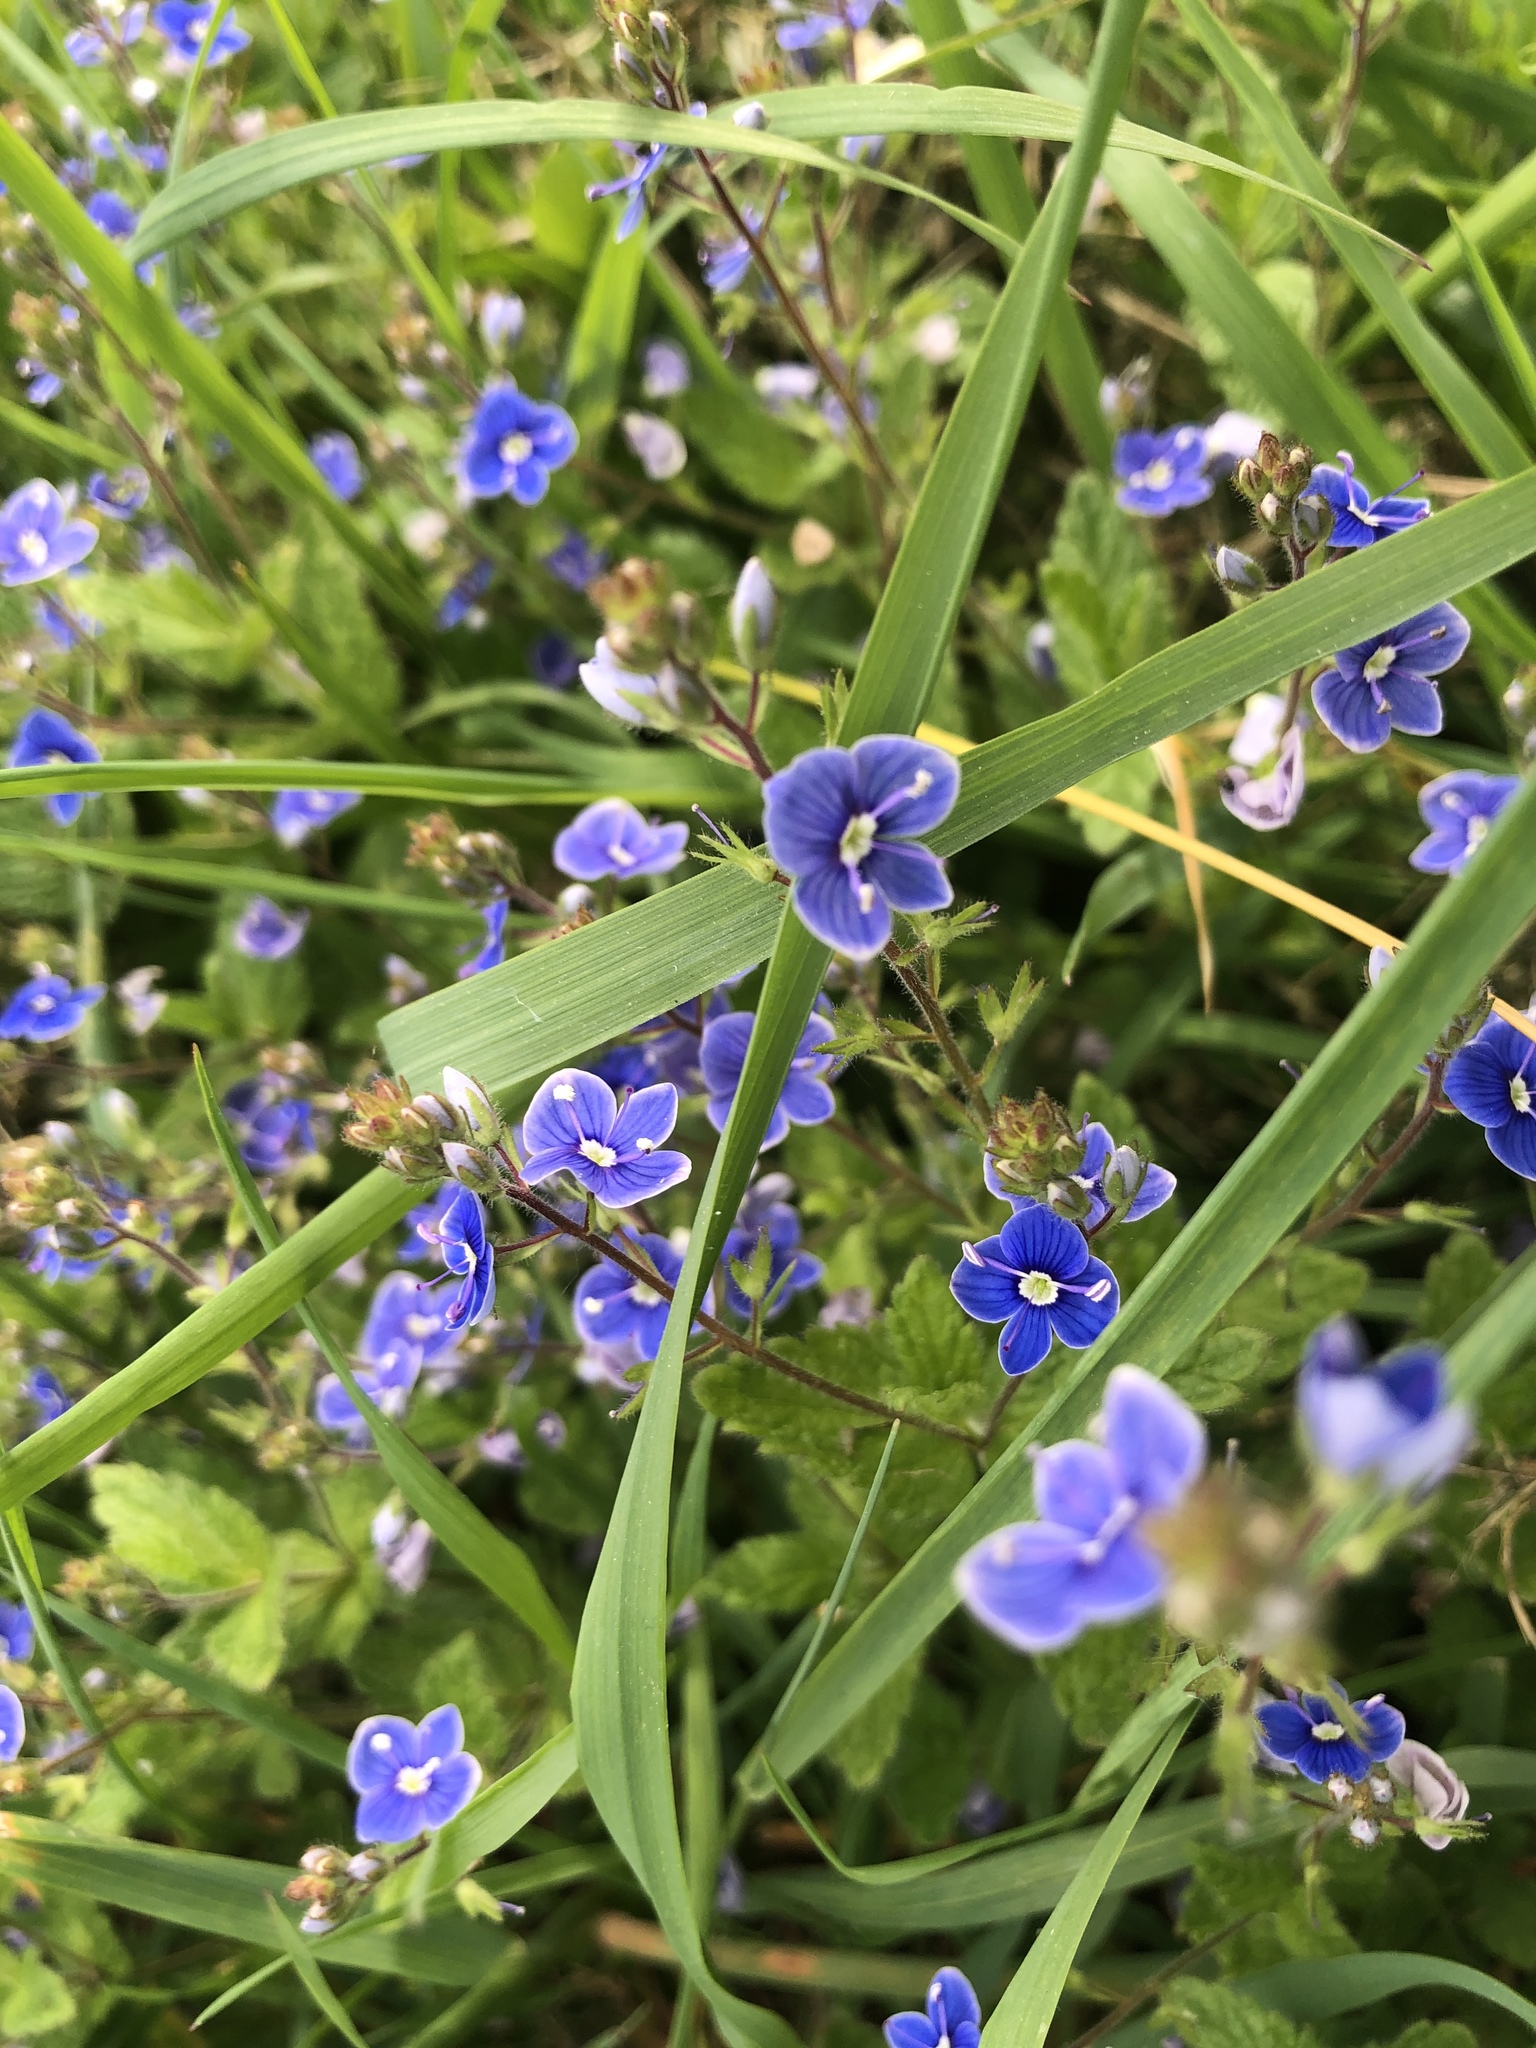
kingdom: Plantae
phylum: Tracheophyta
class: Magnoliopsida
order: Lamiales
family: Plantaginaceae
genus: Veronica
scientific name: Veronica chamaedrys
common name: Germander speedwell
